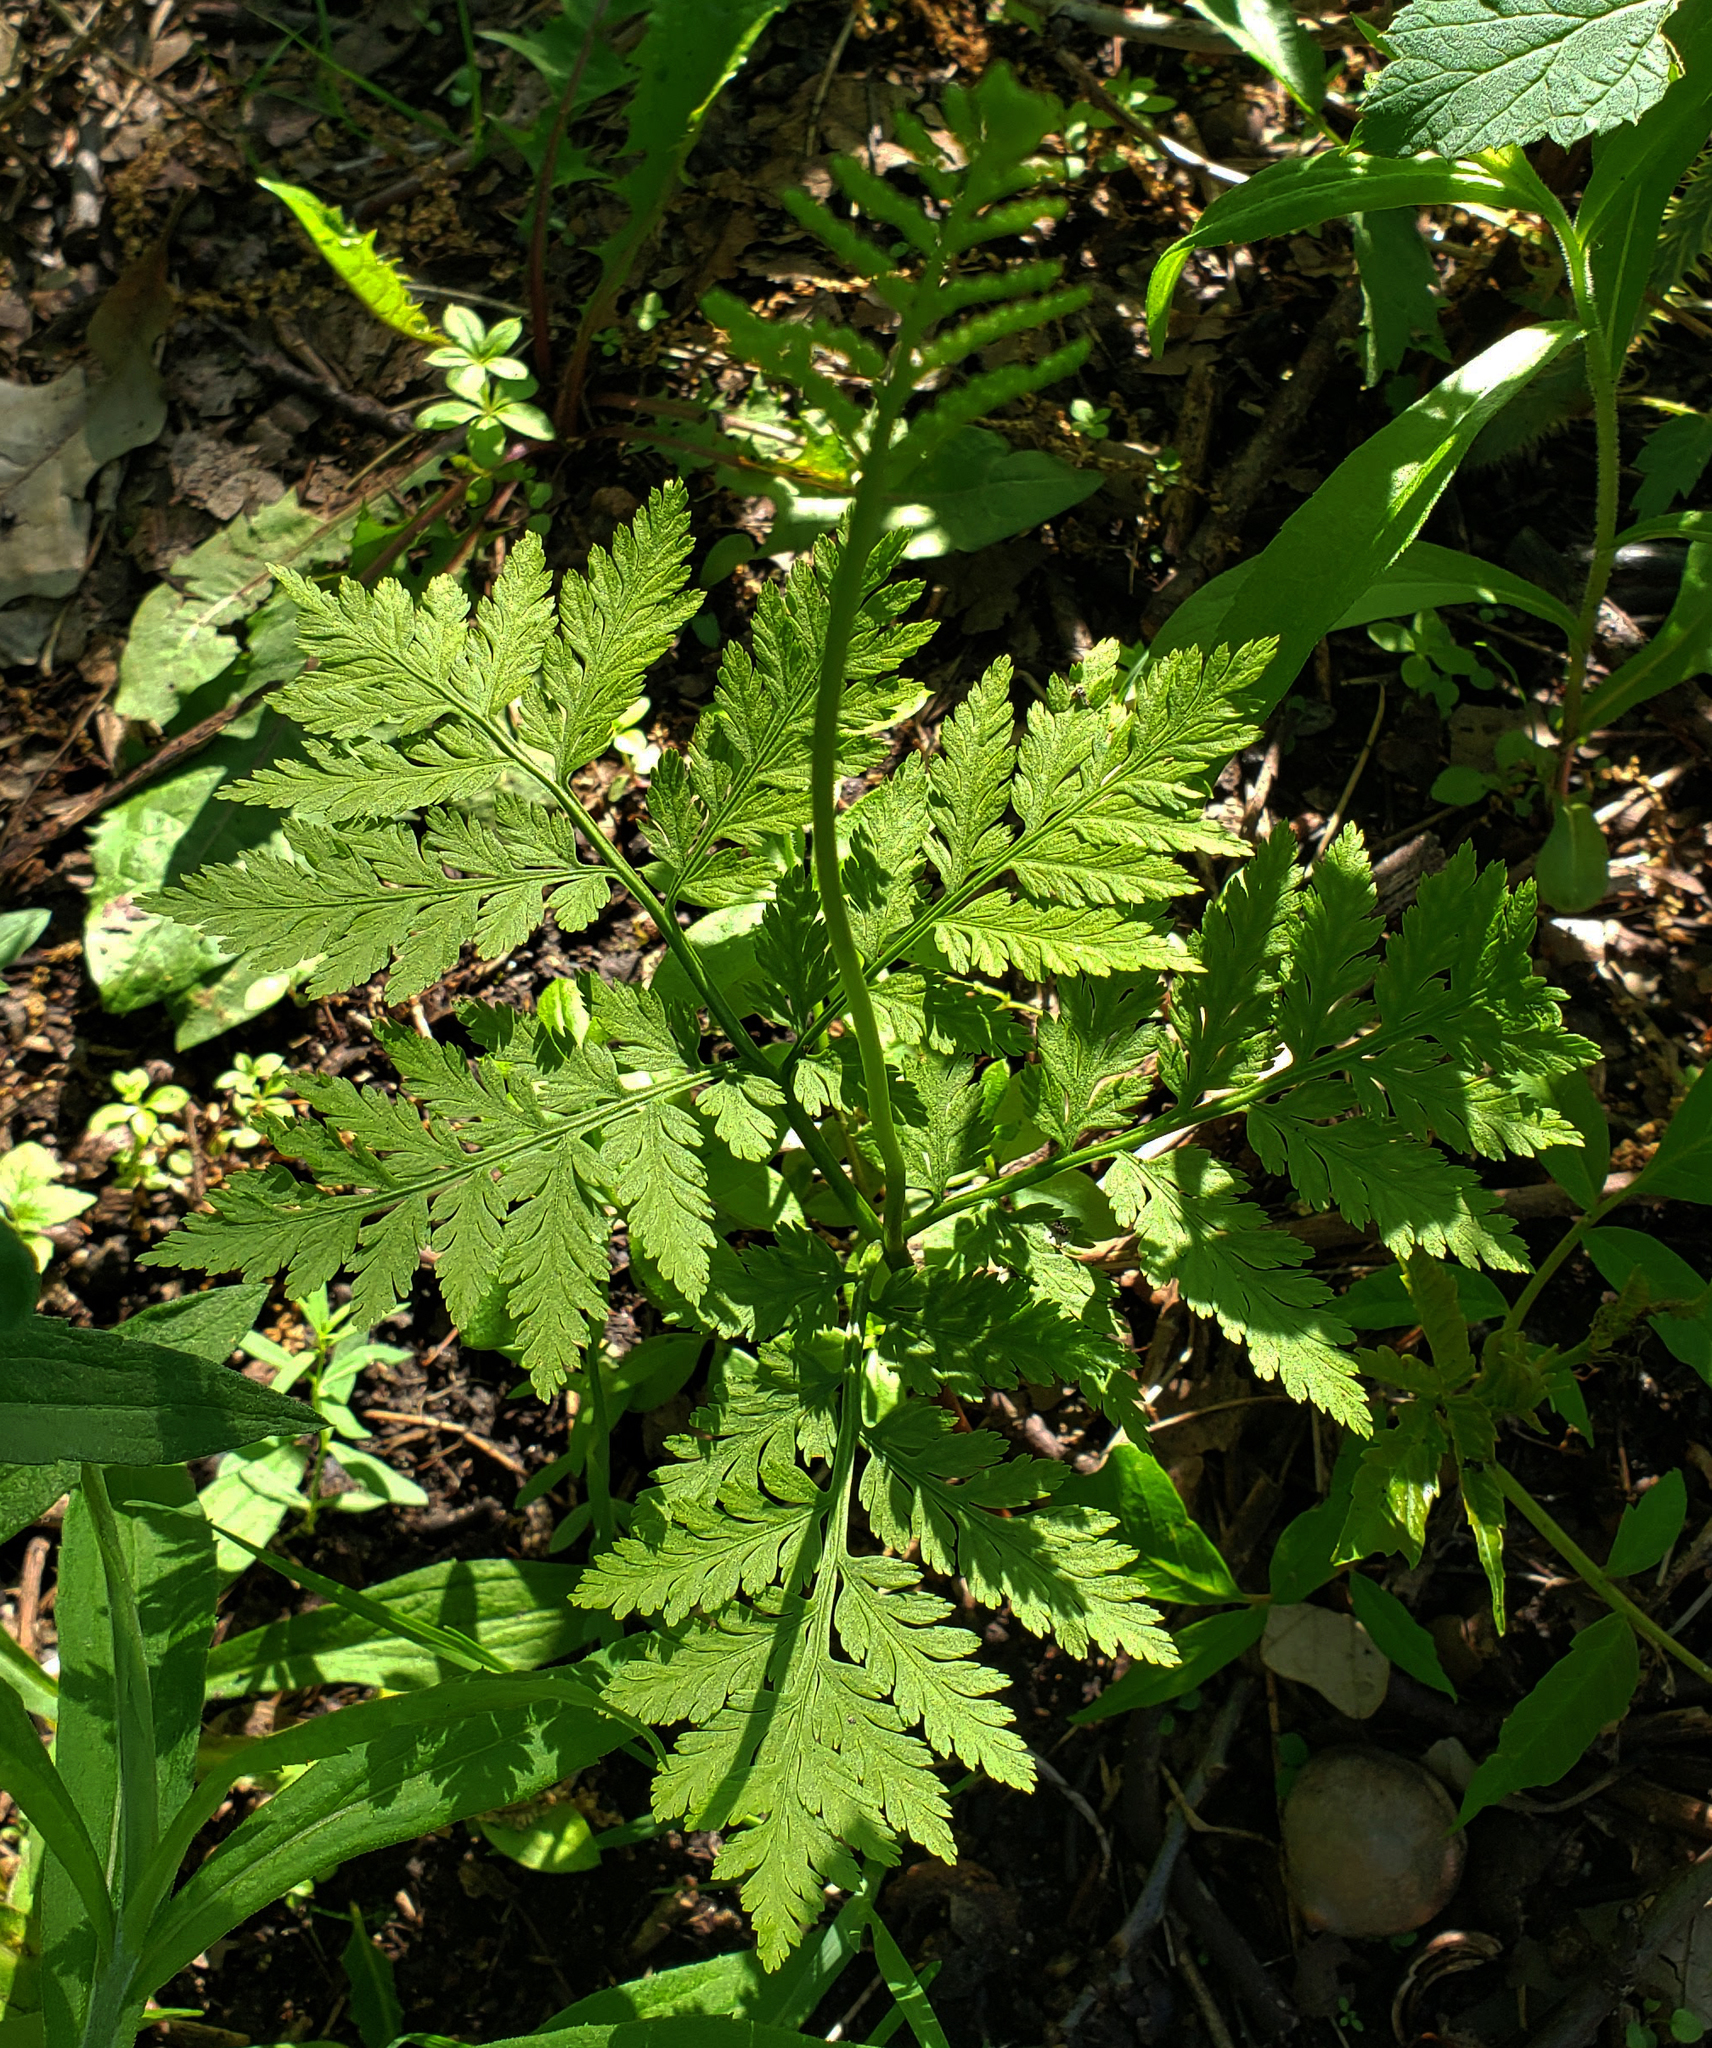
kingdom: Plantae
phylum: Tracheophyta
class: Polypodiopsida
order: Ophioglossales
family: Ophioglossaceae
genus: Botrypus
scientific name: Botrypus virginianus
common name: Common grapefern
